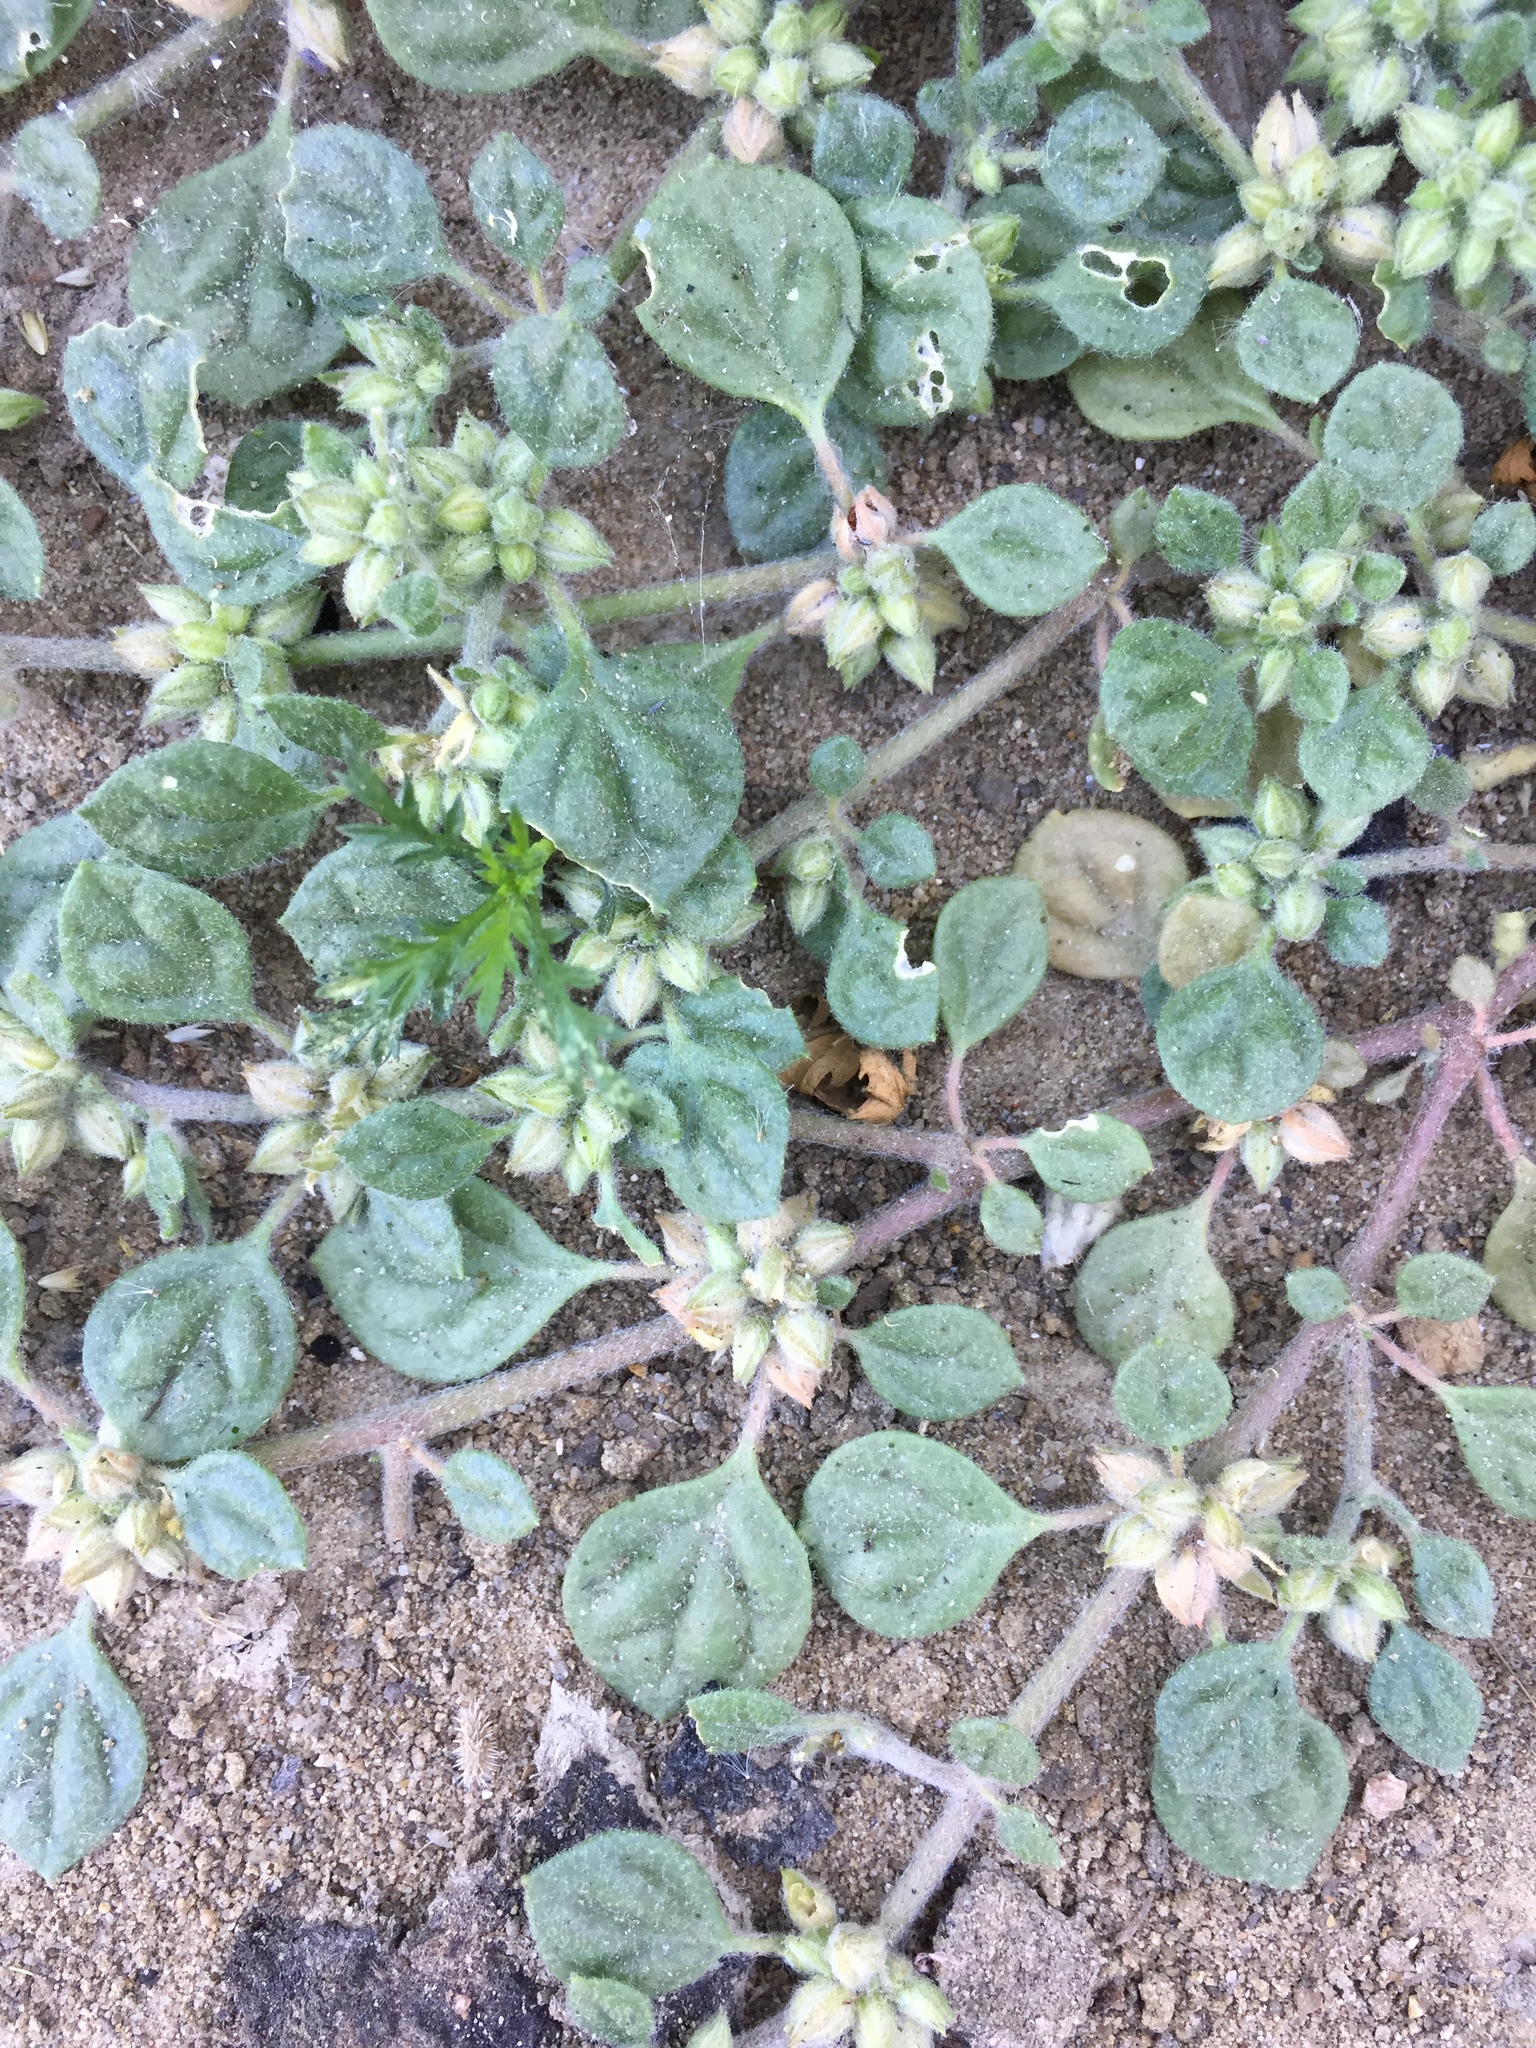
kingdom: Plantae
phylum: Tracheophyta
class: Magnoliopsida
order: Caryophyllales
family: Molluginaceae
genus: Glinus
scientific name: Glinus lotoides
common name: Lotus sweetjuice
